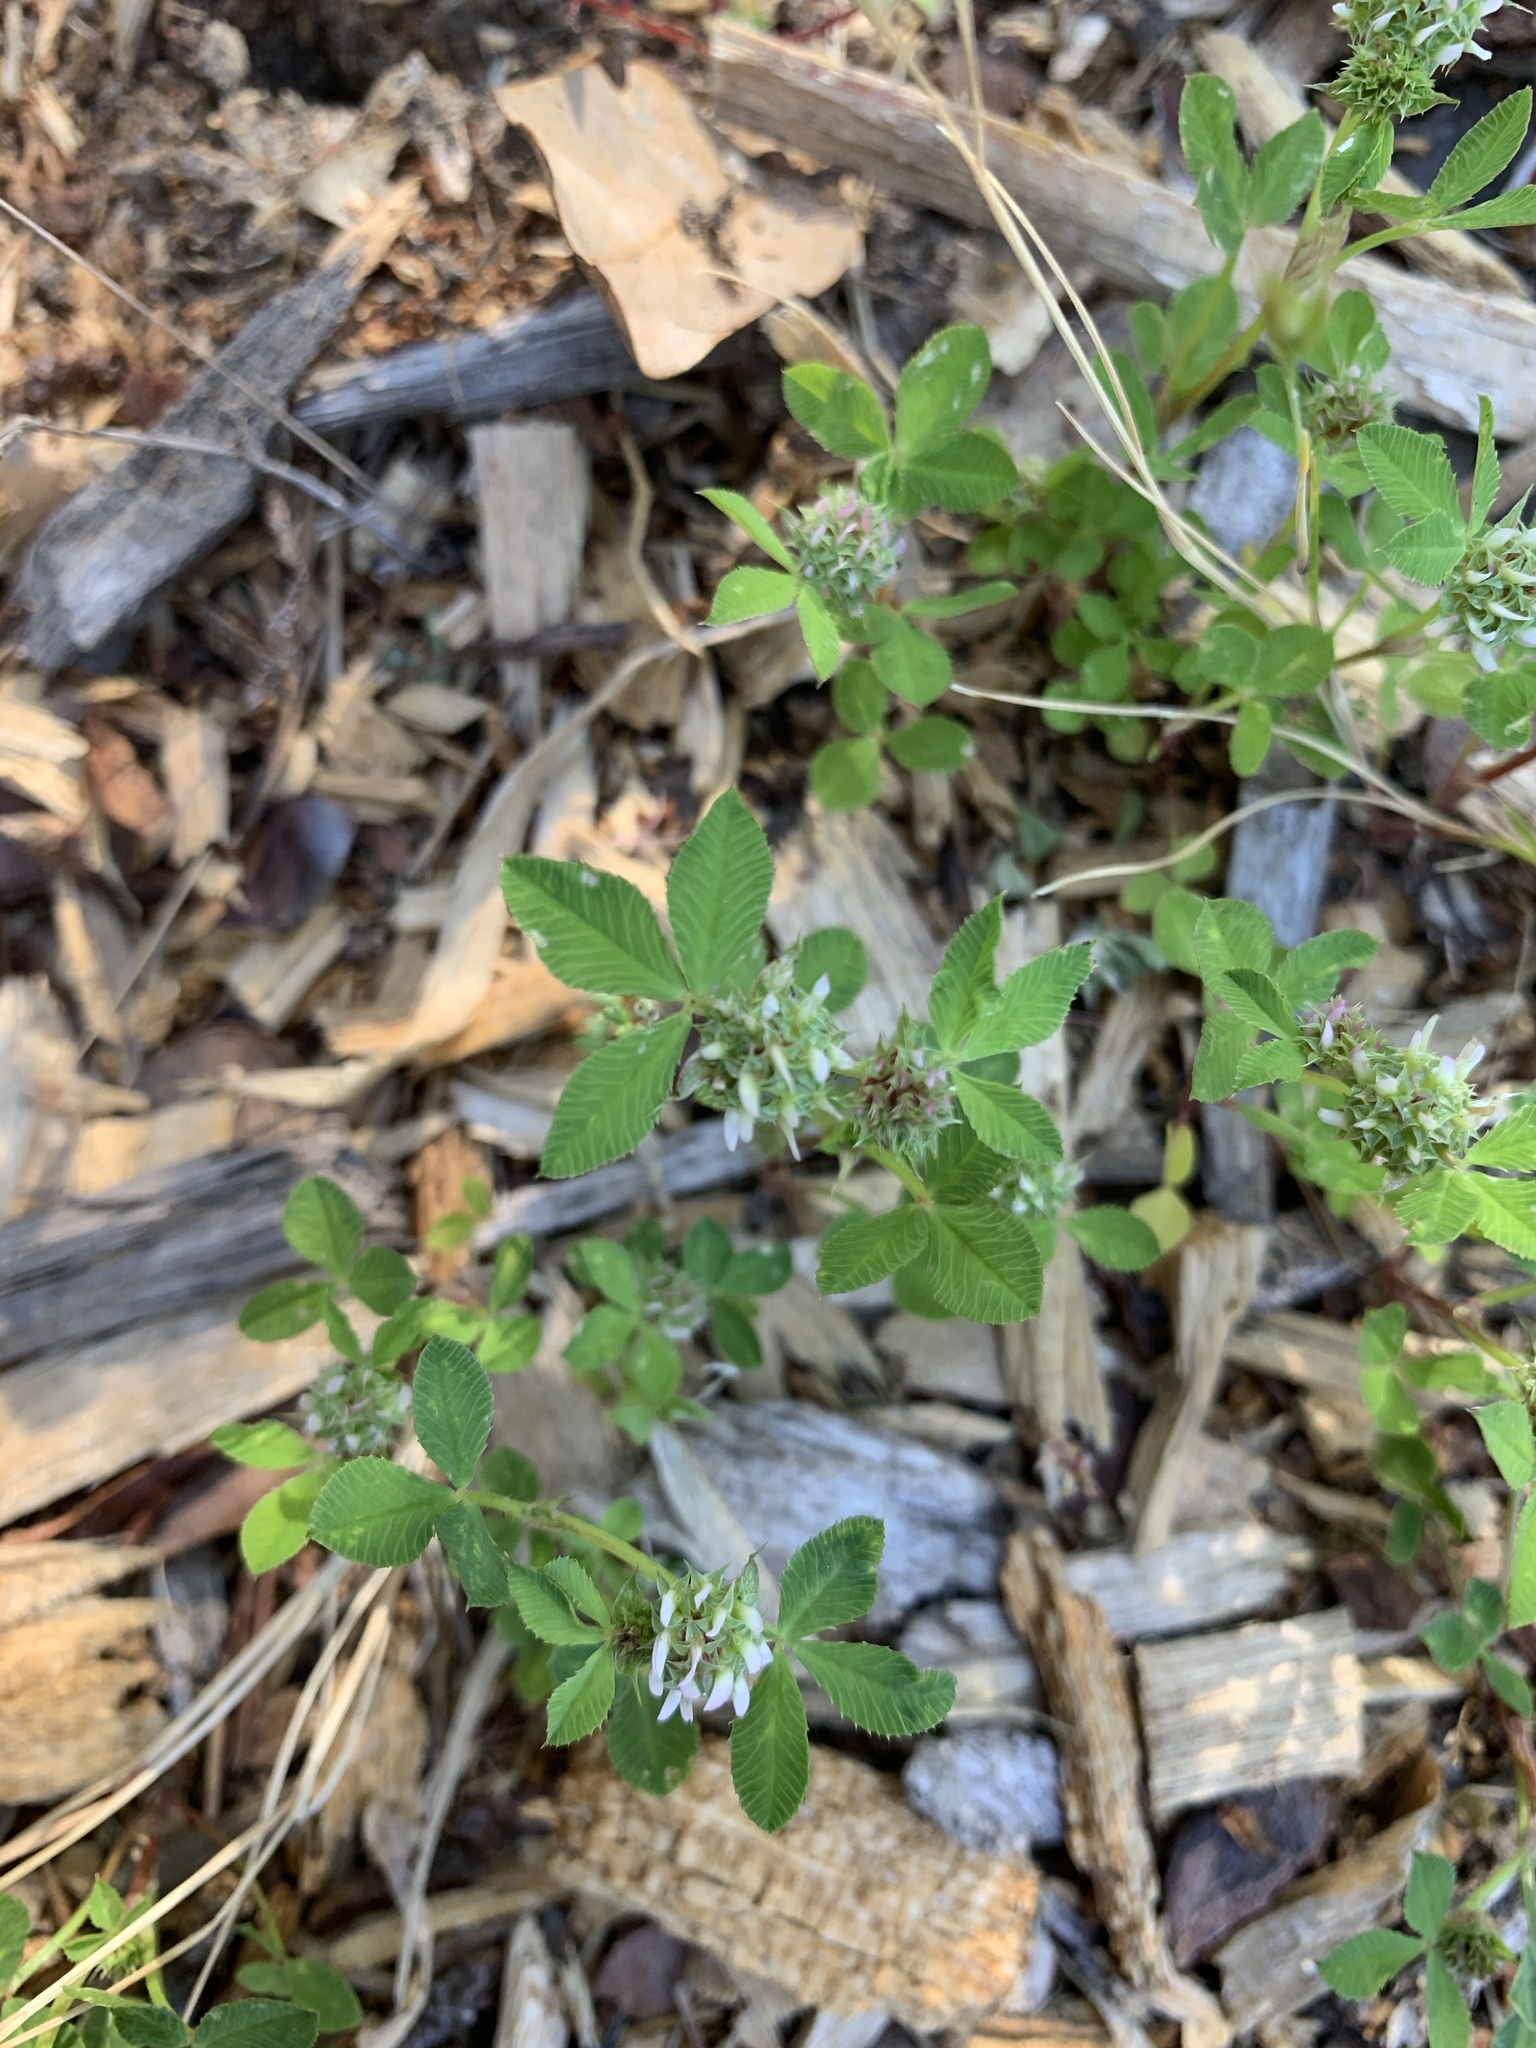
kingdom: Plantae
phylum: Tracheophyta
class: Magnoliopsida
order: Fabales
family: Fabaceae
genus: Trifolium
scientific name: Trifolium glomeratum
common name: Clustered clover
